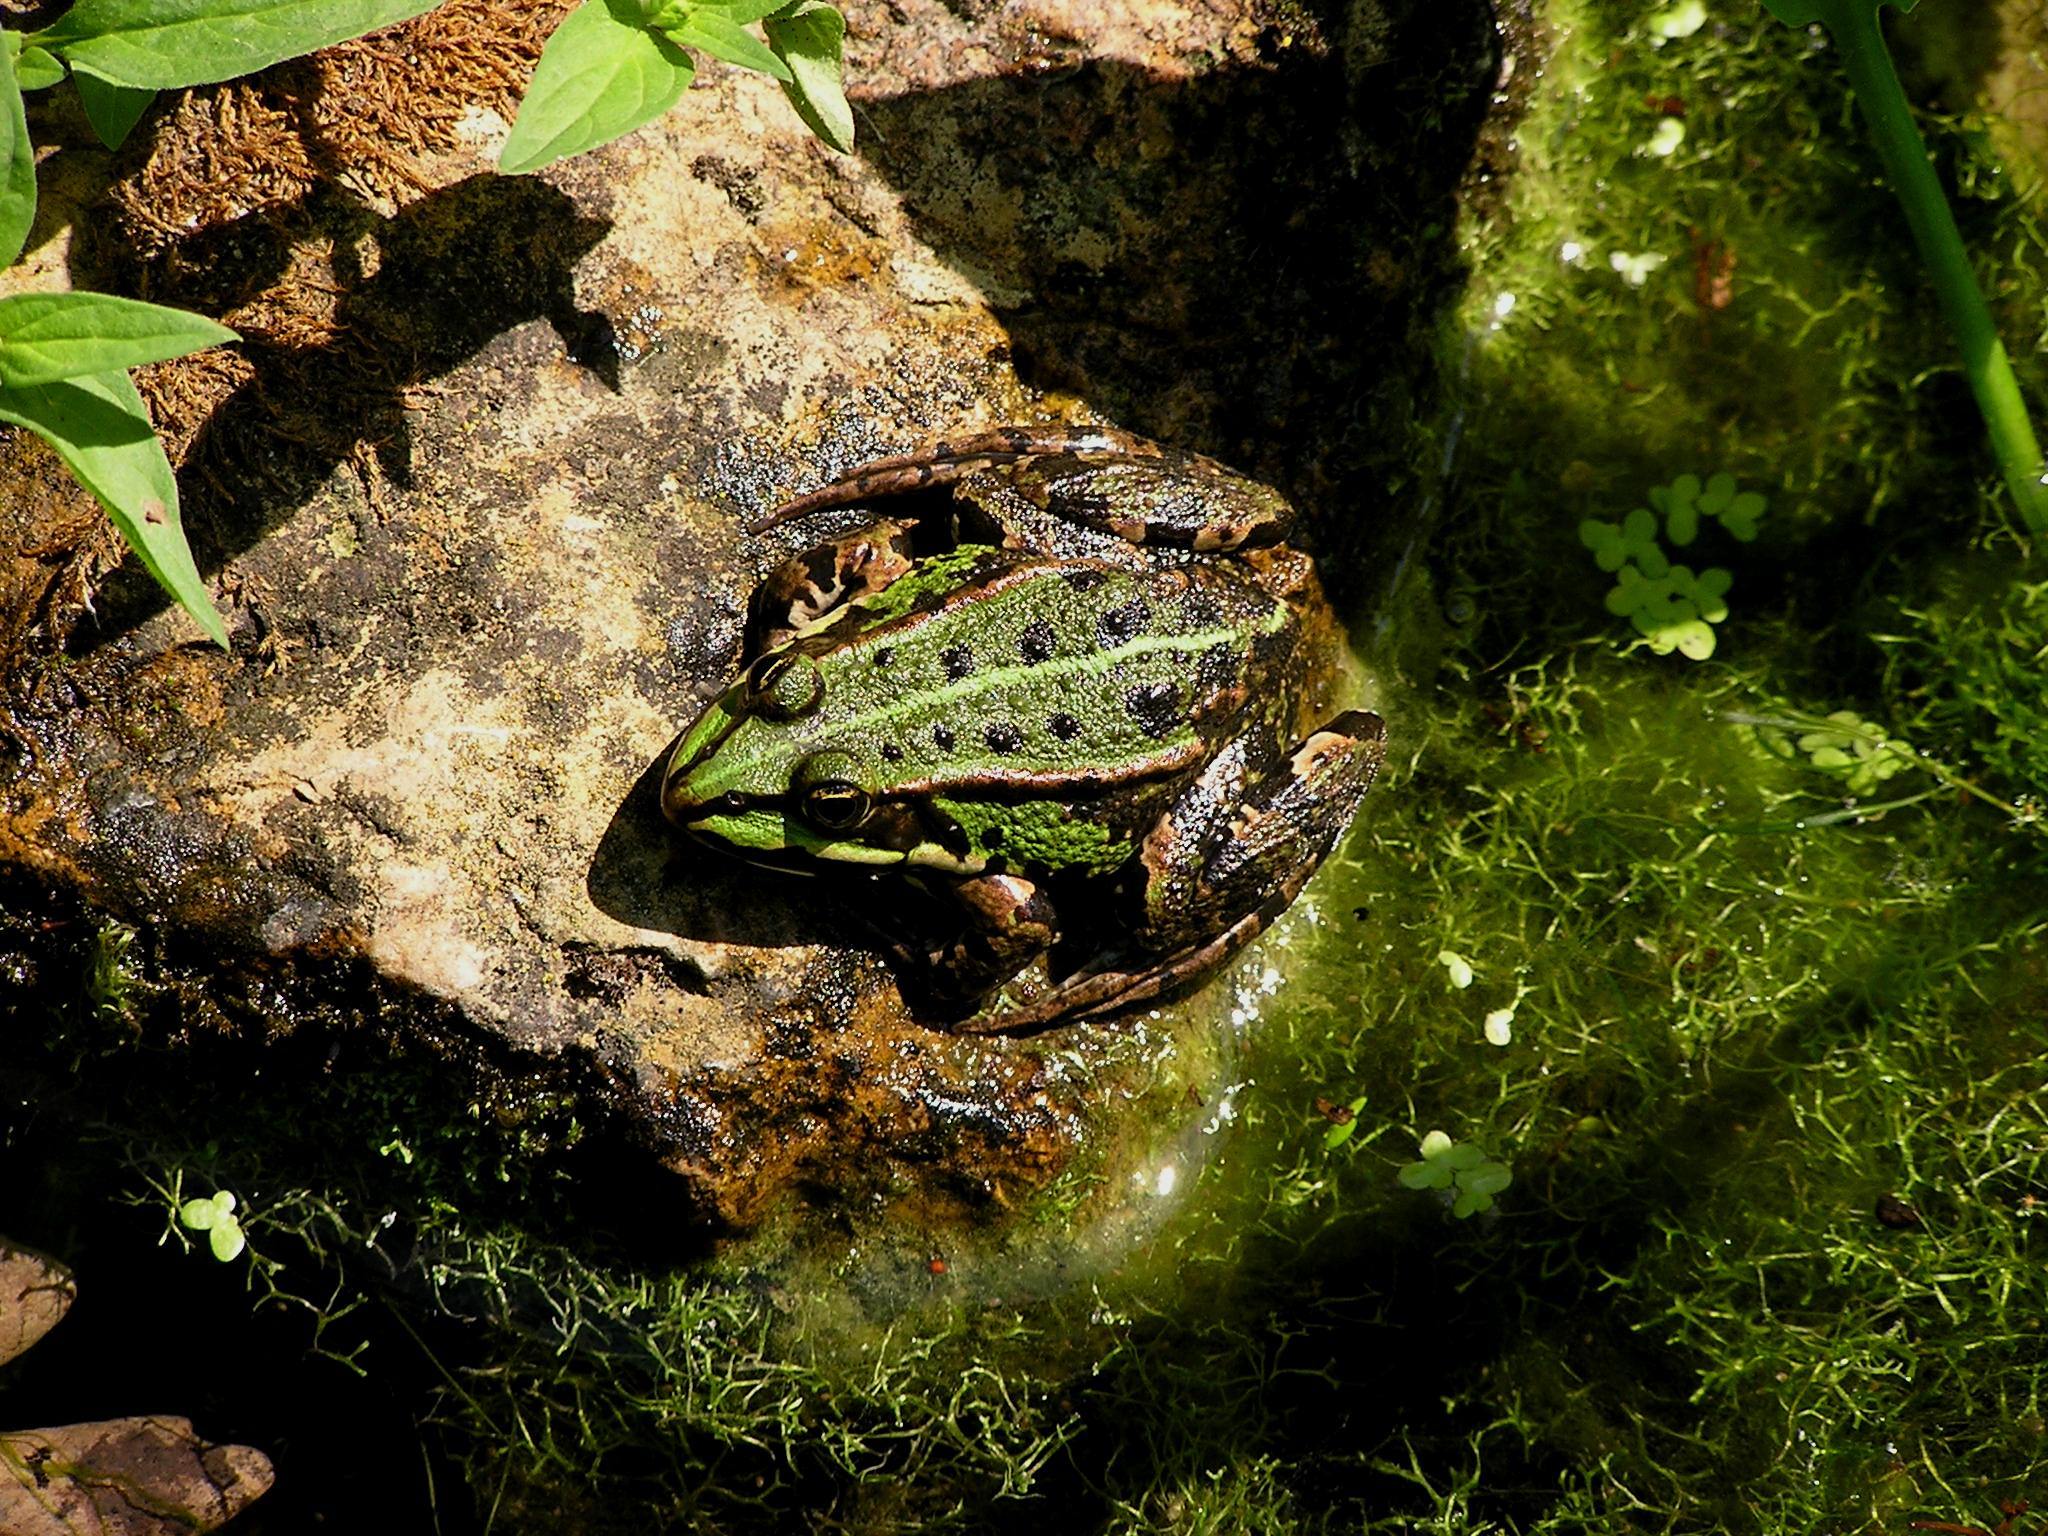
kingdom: Animalia
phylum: Chordata
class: Amphibia
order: Anura
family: Ranidae
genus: Pelophylax
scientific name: Pelophylax
